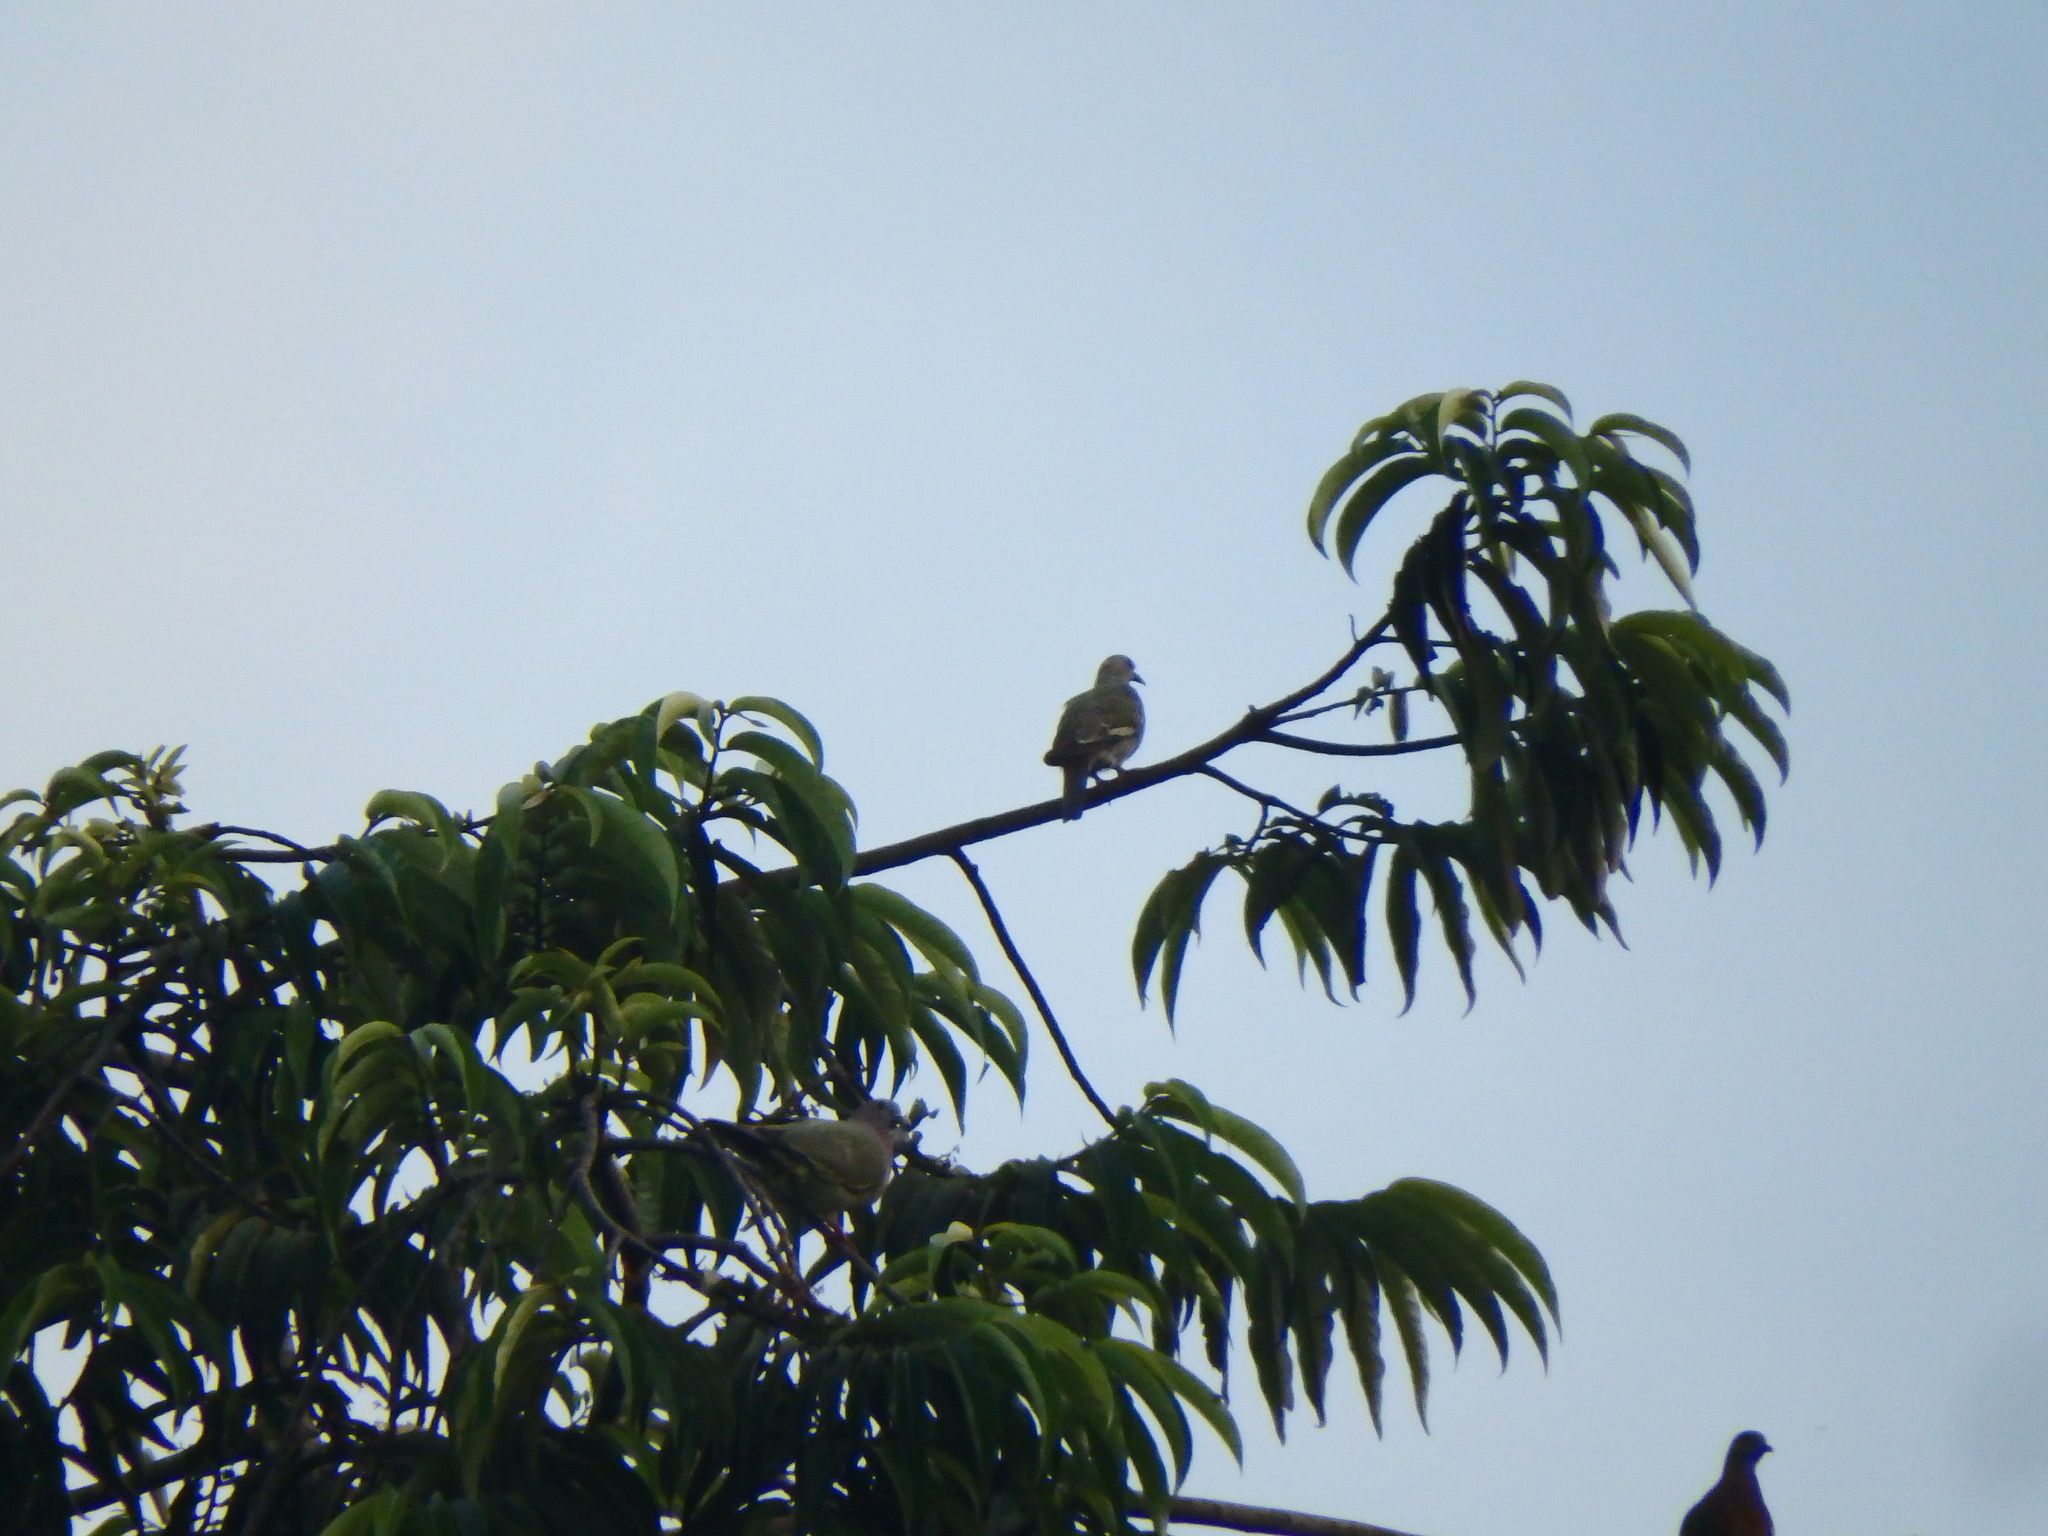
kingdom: Animalia
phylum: Chordata
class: Aves
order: Columbiformes
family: Columbidae
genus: Treron
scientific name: Treron vernans
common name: Pink-necked green pigeon
